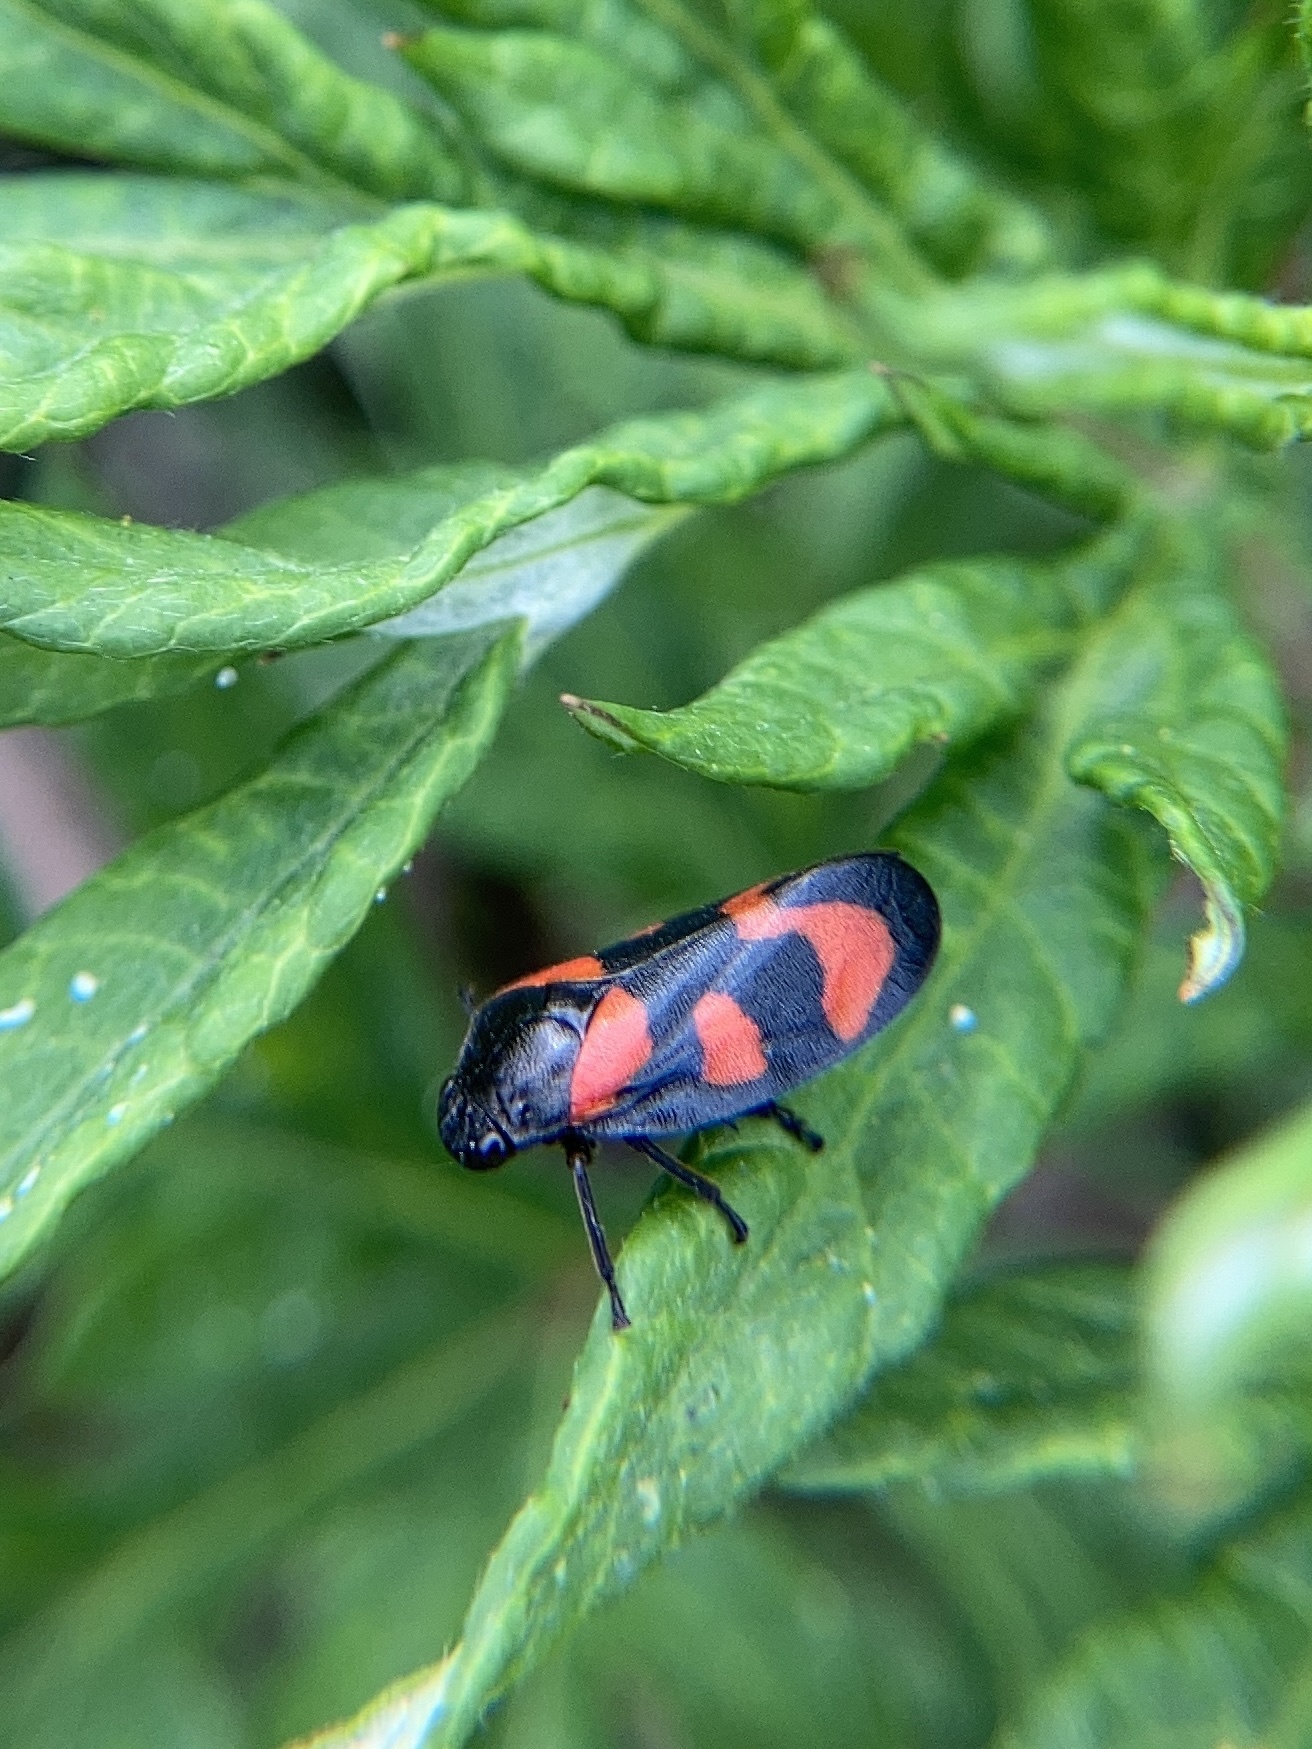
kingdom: Animalia
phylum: Arthropoda
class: Insecta
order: Hemiptera
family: Cercopidae
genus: Cercopis
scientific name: Cercopis vulnerata
